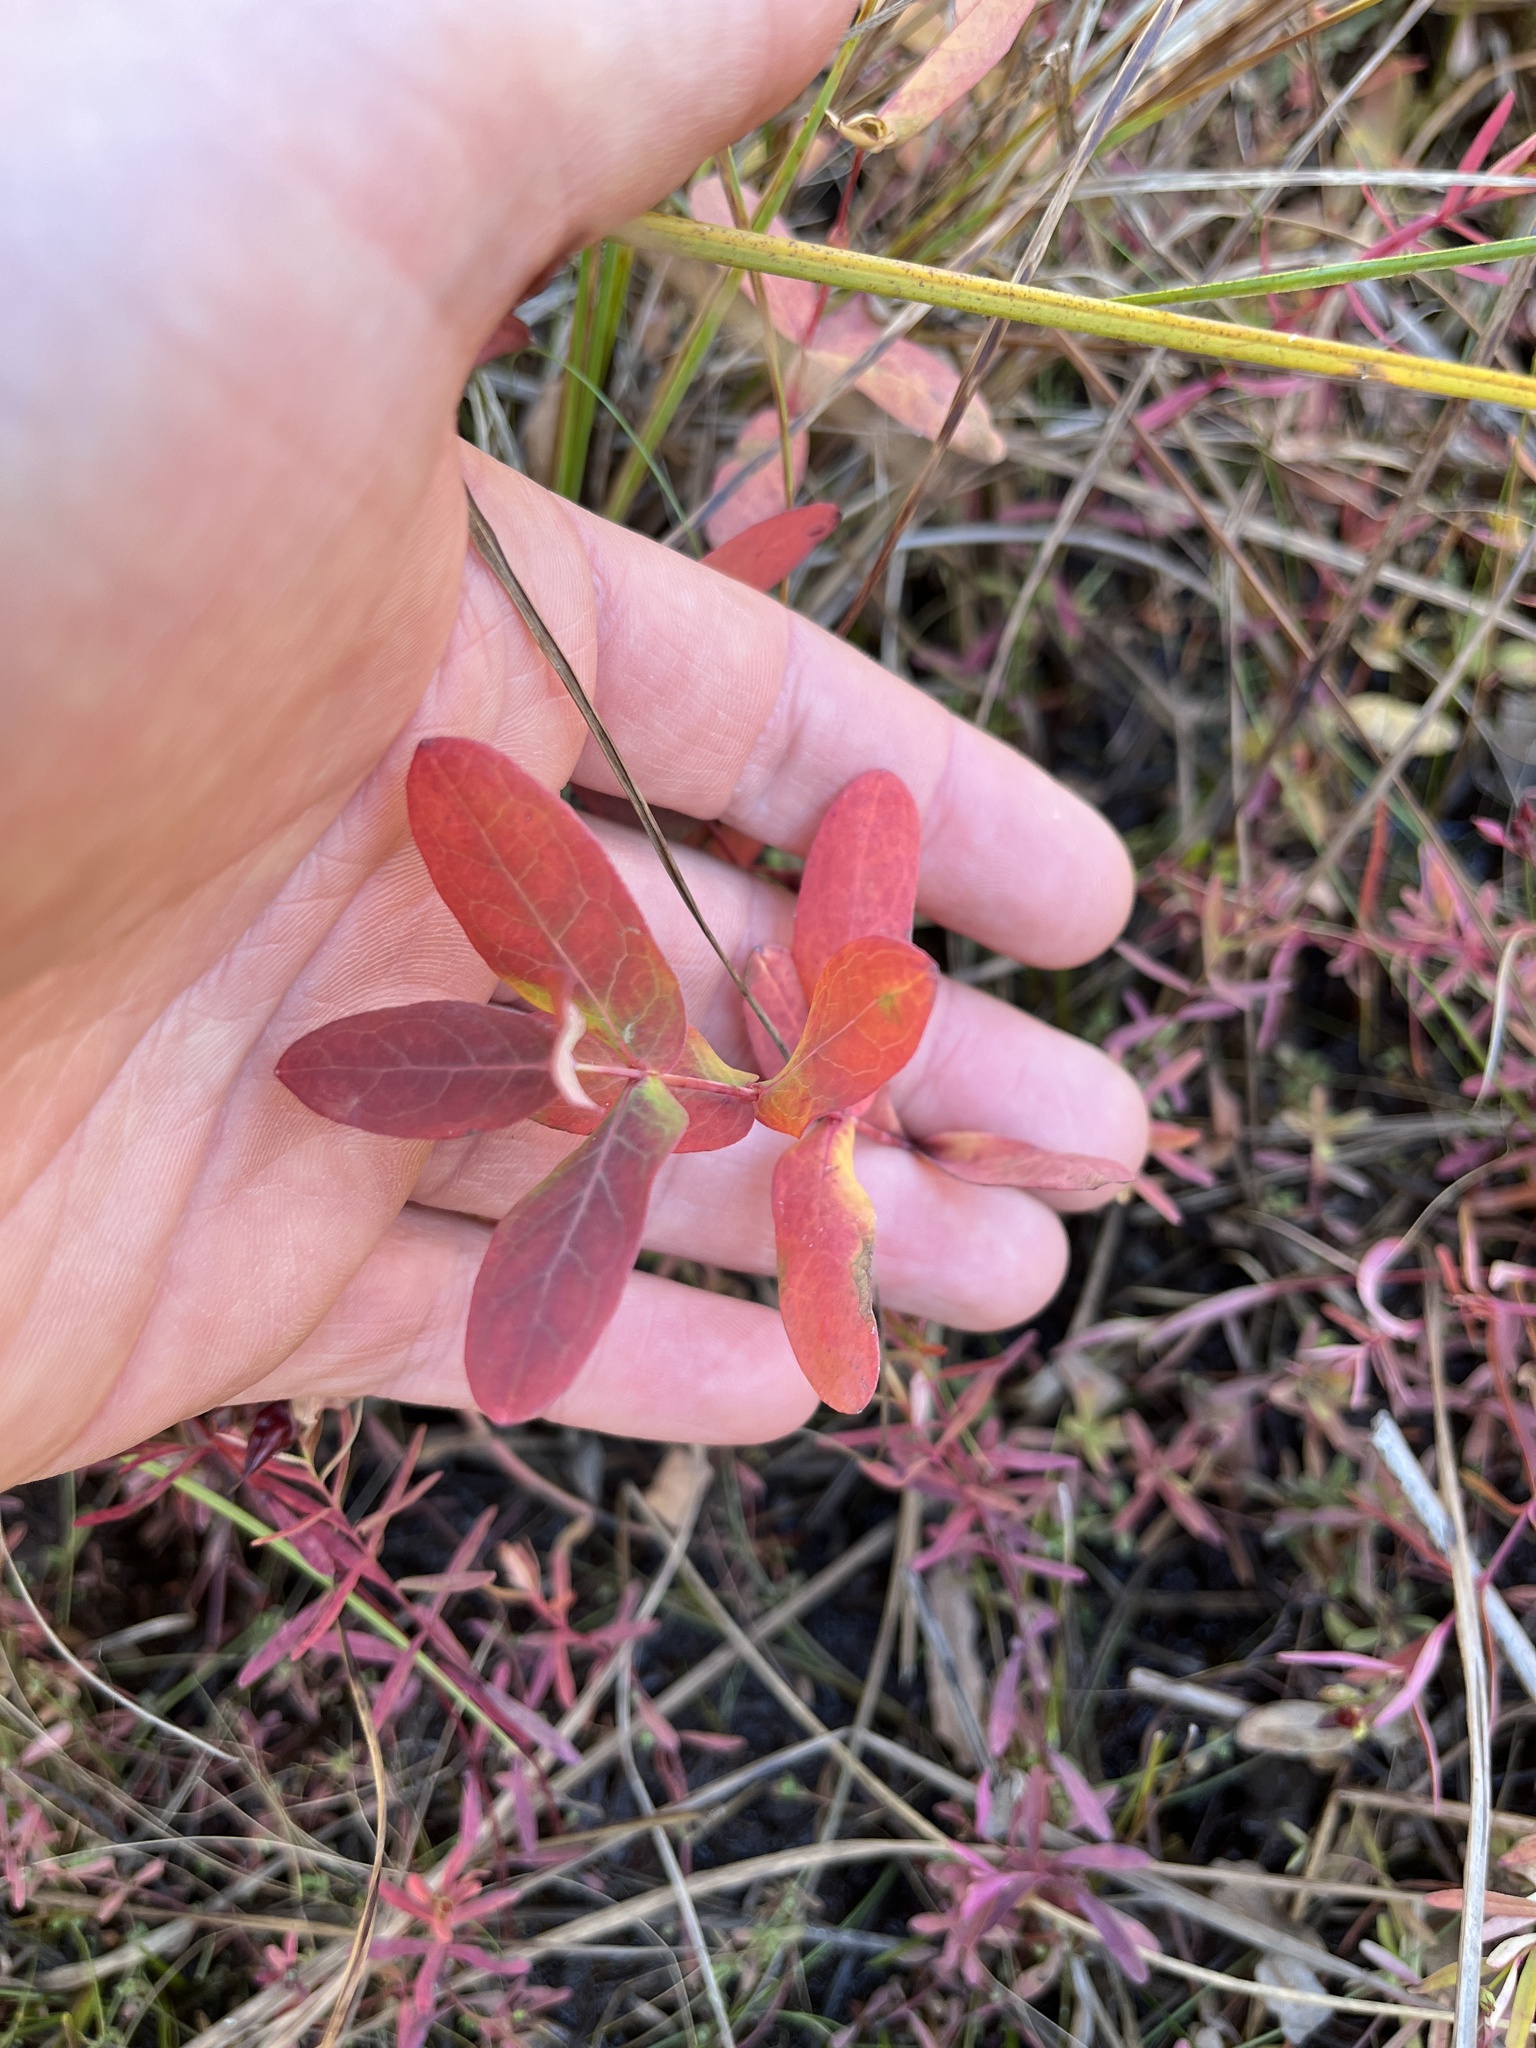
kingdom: Plantae
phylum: Tracheophyta
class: Magnoliopsida
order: Malpighiales
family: Hypericaceae
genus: Triadenum
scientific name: Triadenum virginicum
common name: Marsh st. john's-wort
